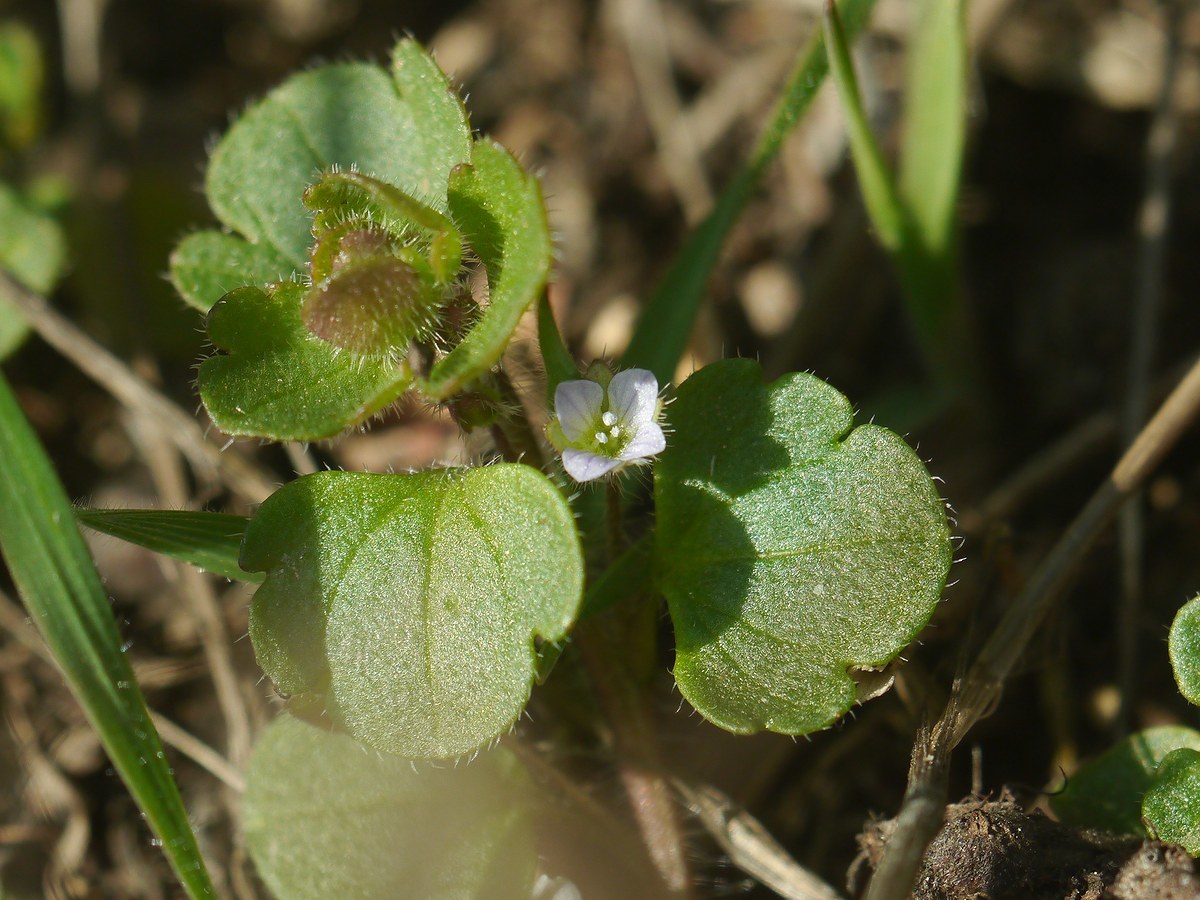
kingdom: Plantae
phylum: Tracheophyta
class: Magnoliopsida
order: Lamiales
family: Plantaginaceae
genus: Veronica
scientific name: Veronica sublobata
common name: False ivy-leaved speedwell
